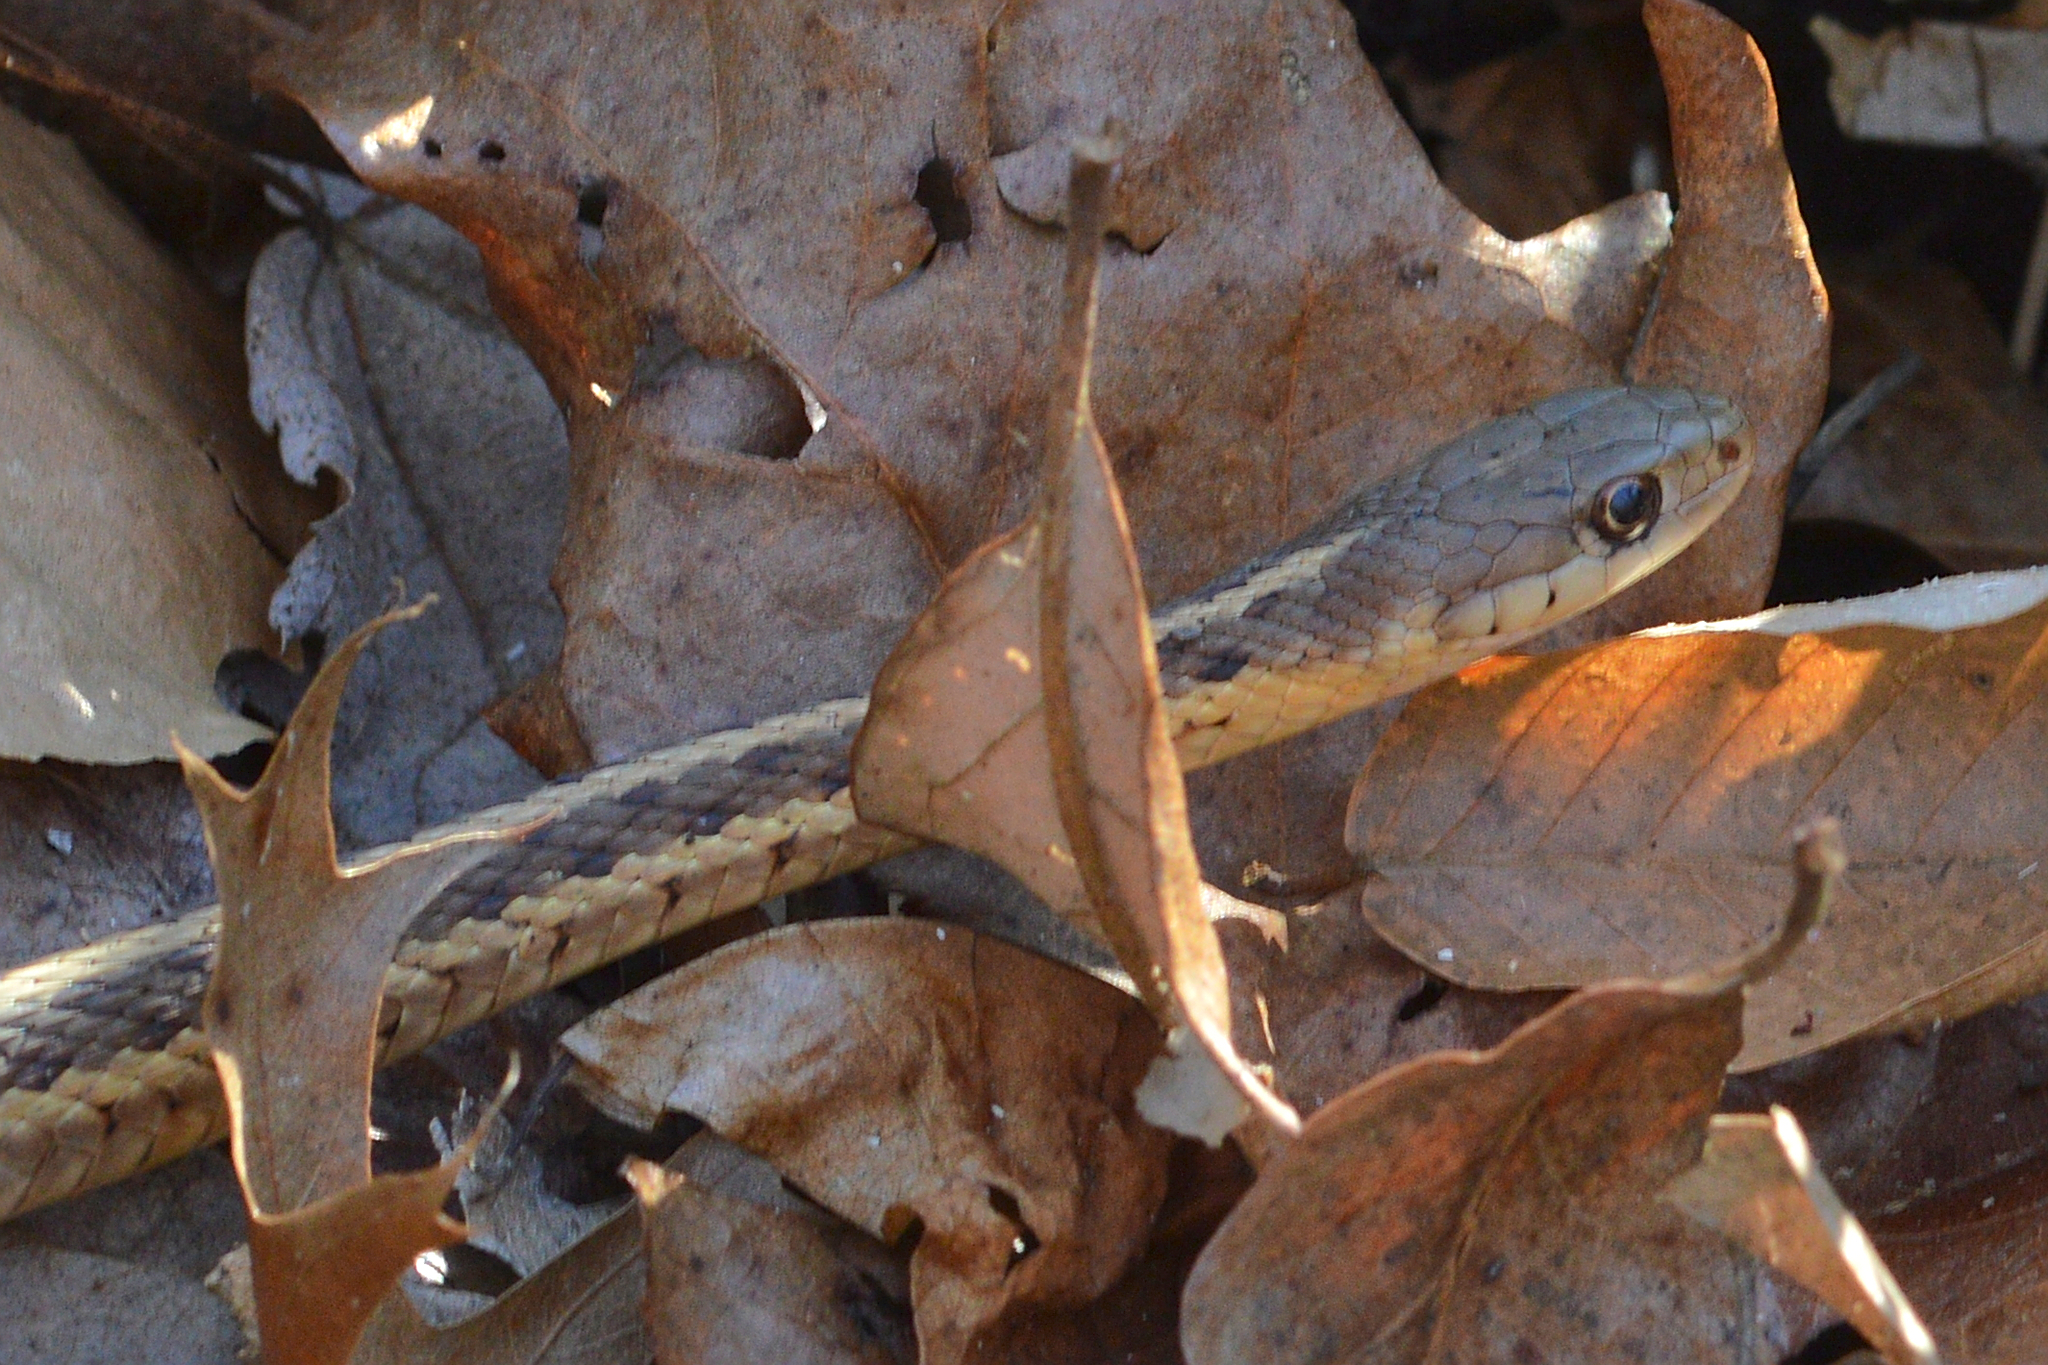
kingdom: Animalia
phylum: Chordata
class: Squamata
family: Colubridae
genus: Thamnophis
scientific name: Thamnophis sirtalis
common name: Common garter snake
